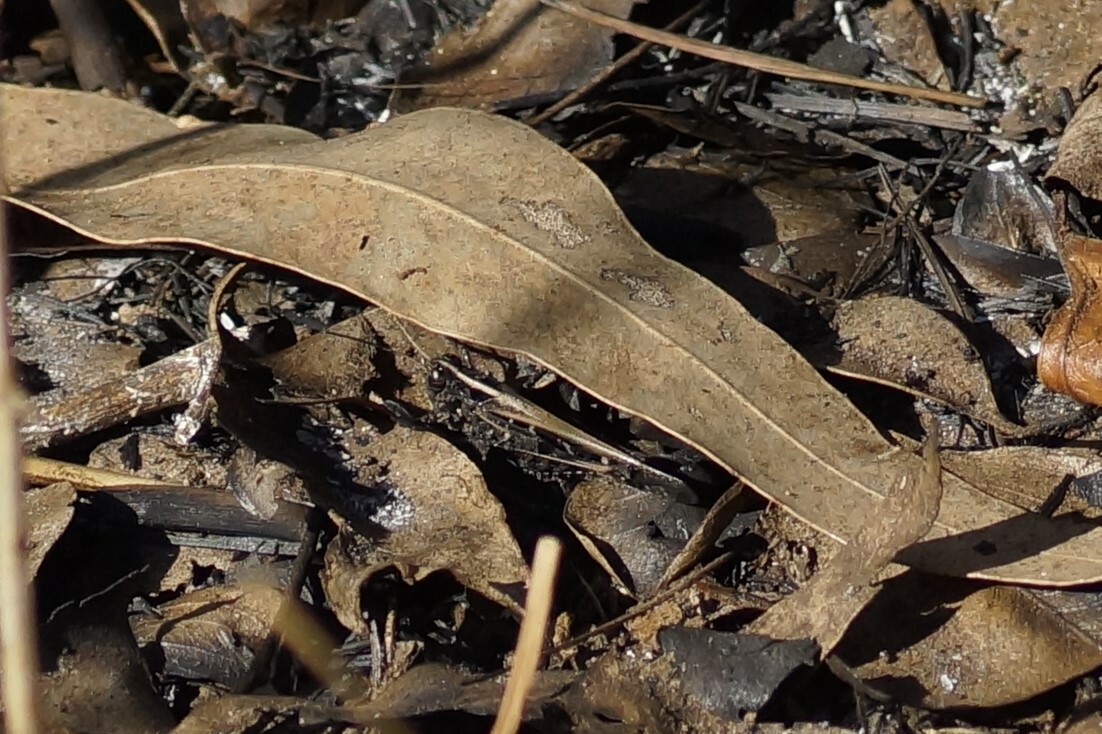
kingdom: Animalia
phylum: Arthropoda
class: Insecta
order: Orthoptera
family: Acrididae
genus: Heteropternis
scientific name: Heteropternis obscurella
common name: Long-legged bandwing
